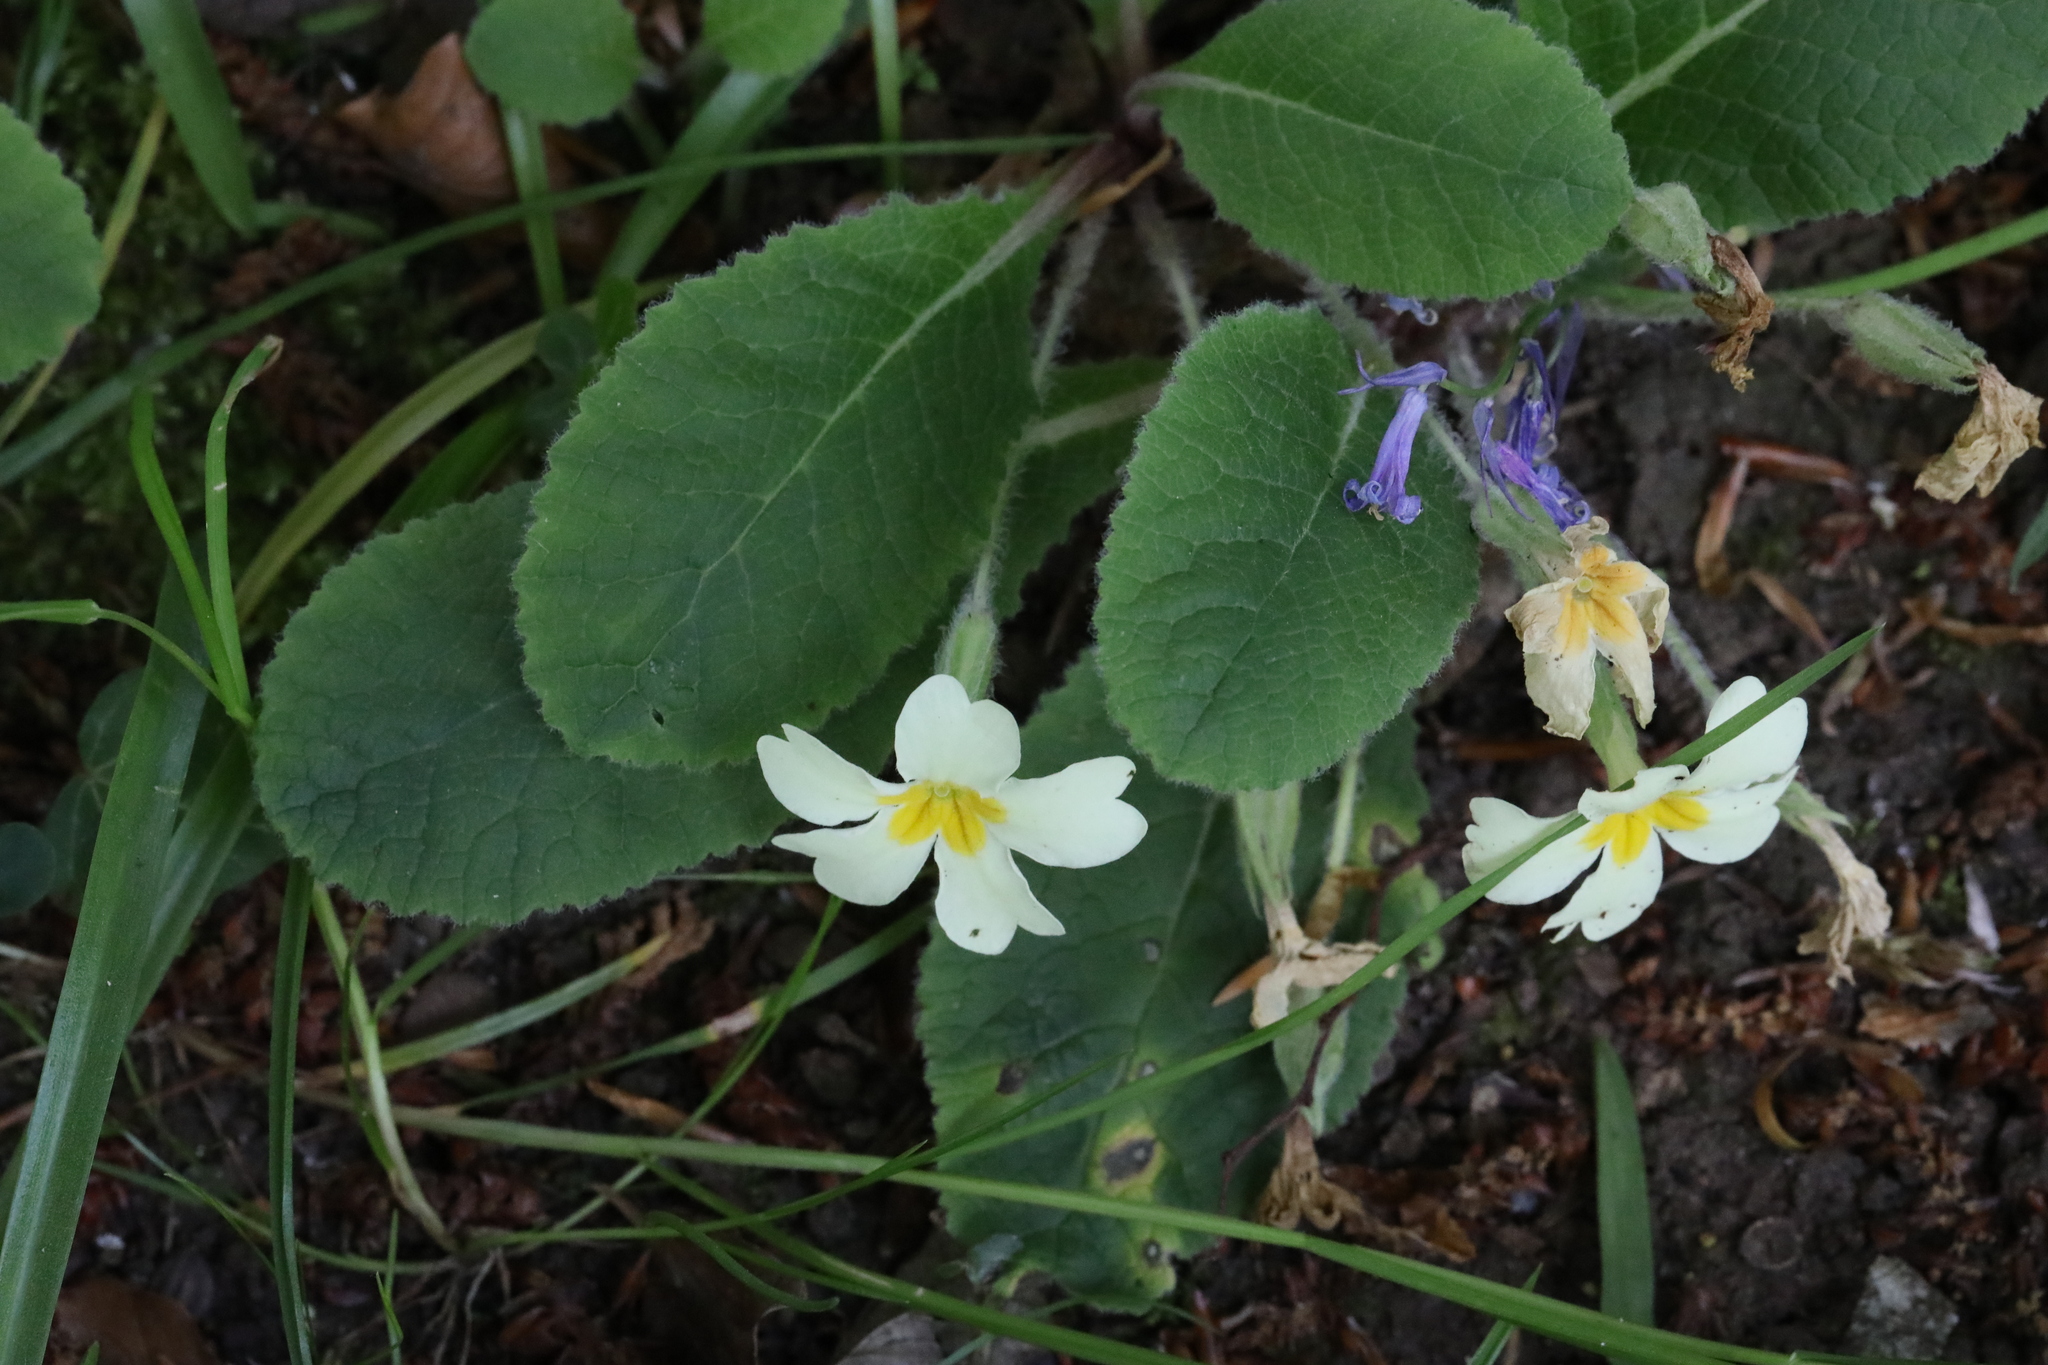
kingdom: Plantae
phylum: Tracheophyta
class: Magnoliopsida
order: Ericales
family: Primulaceae
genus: Primula
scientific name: Primula vulgaris
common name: Primrose
